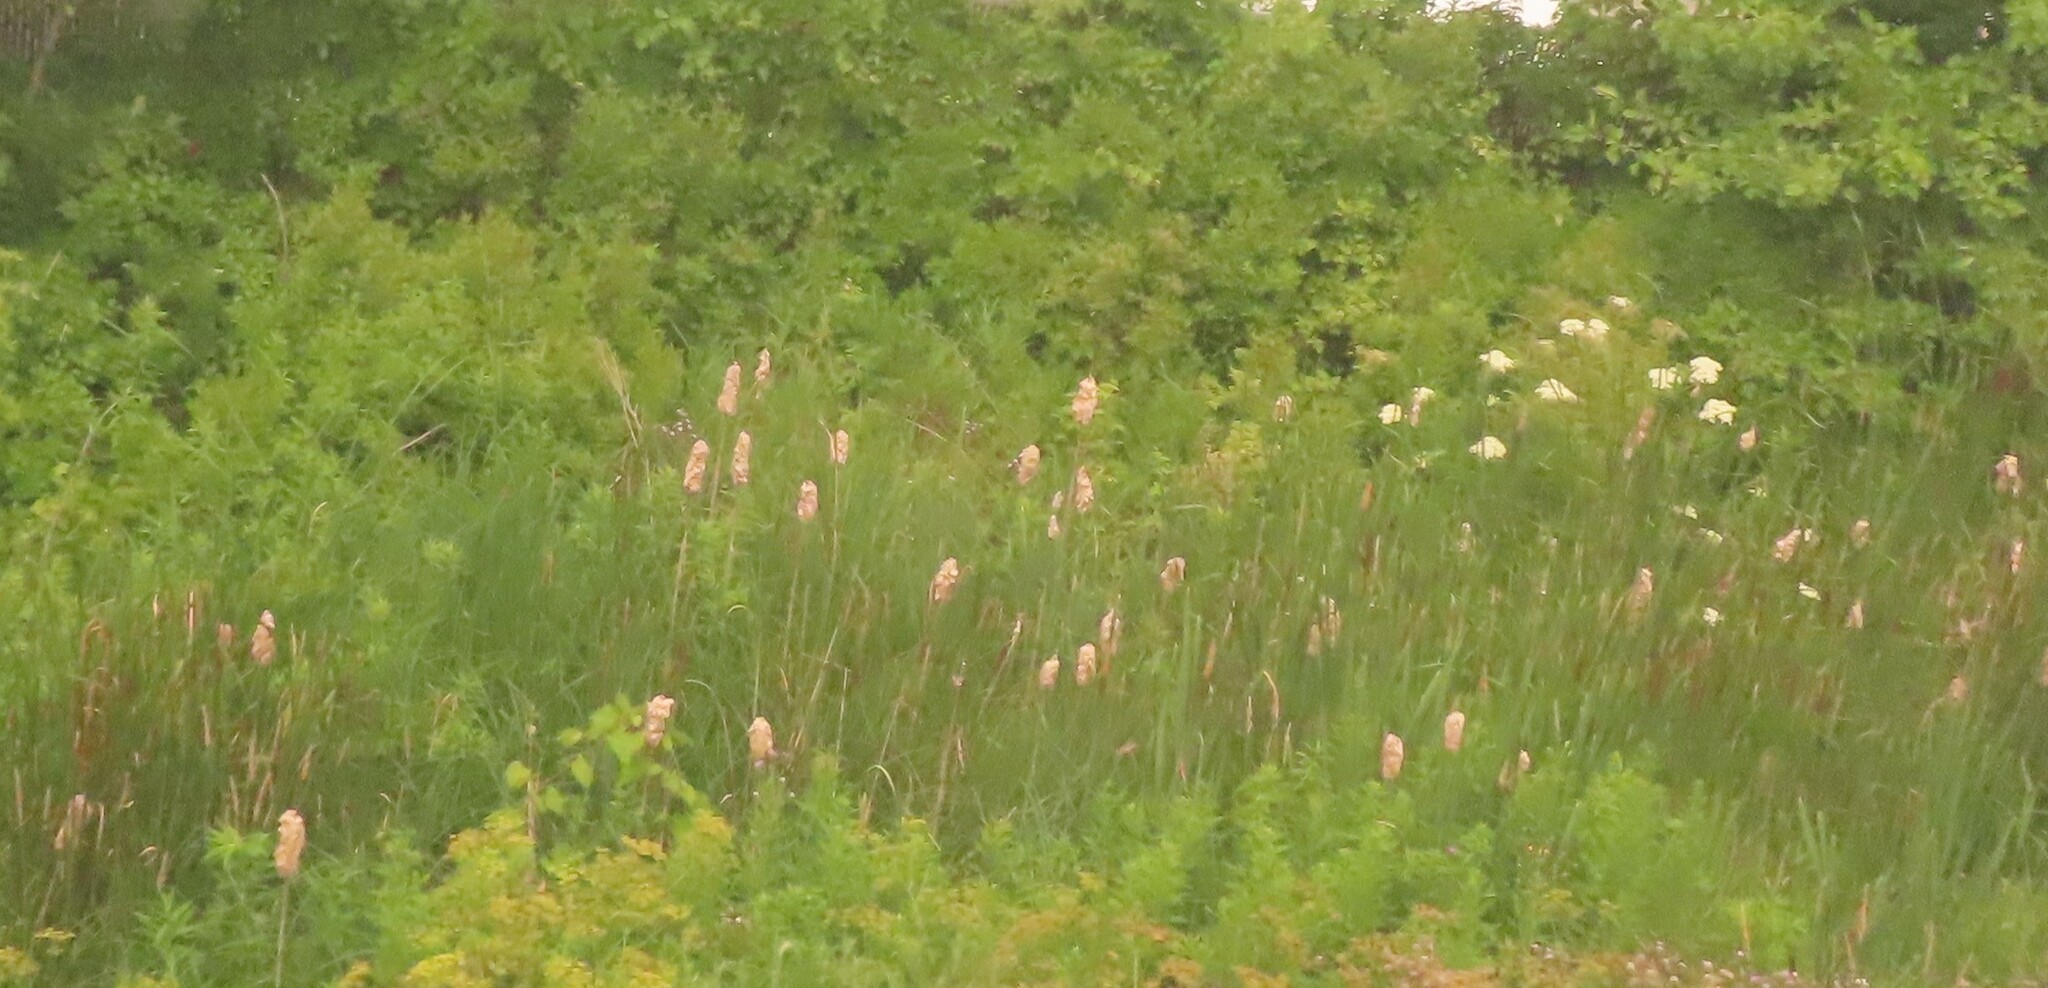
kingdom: Plantae
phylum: Tracheophyta
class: Liliopsida
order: Poales
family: Typhaceae
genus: Typha
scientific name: Typha
